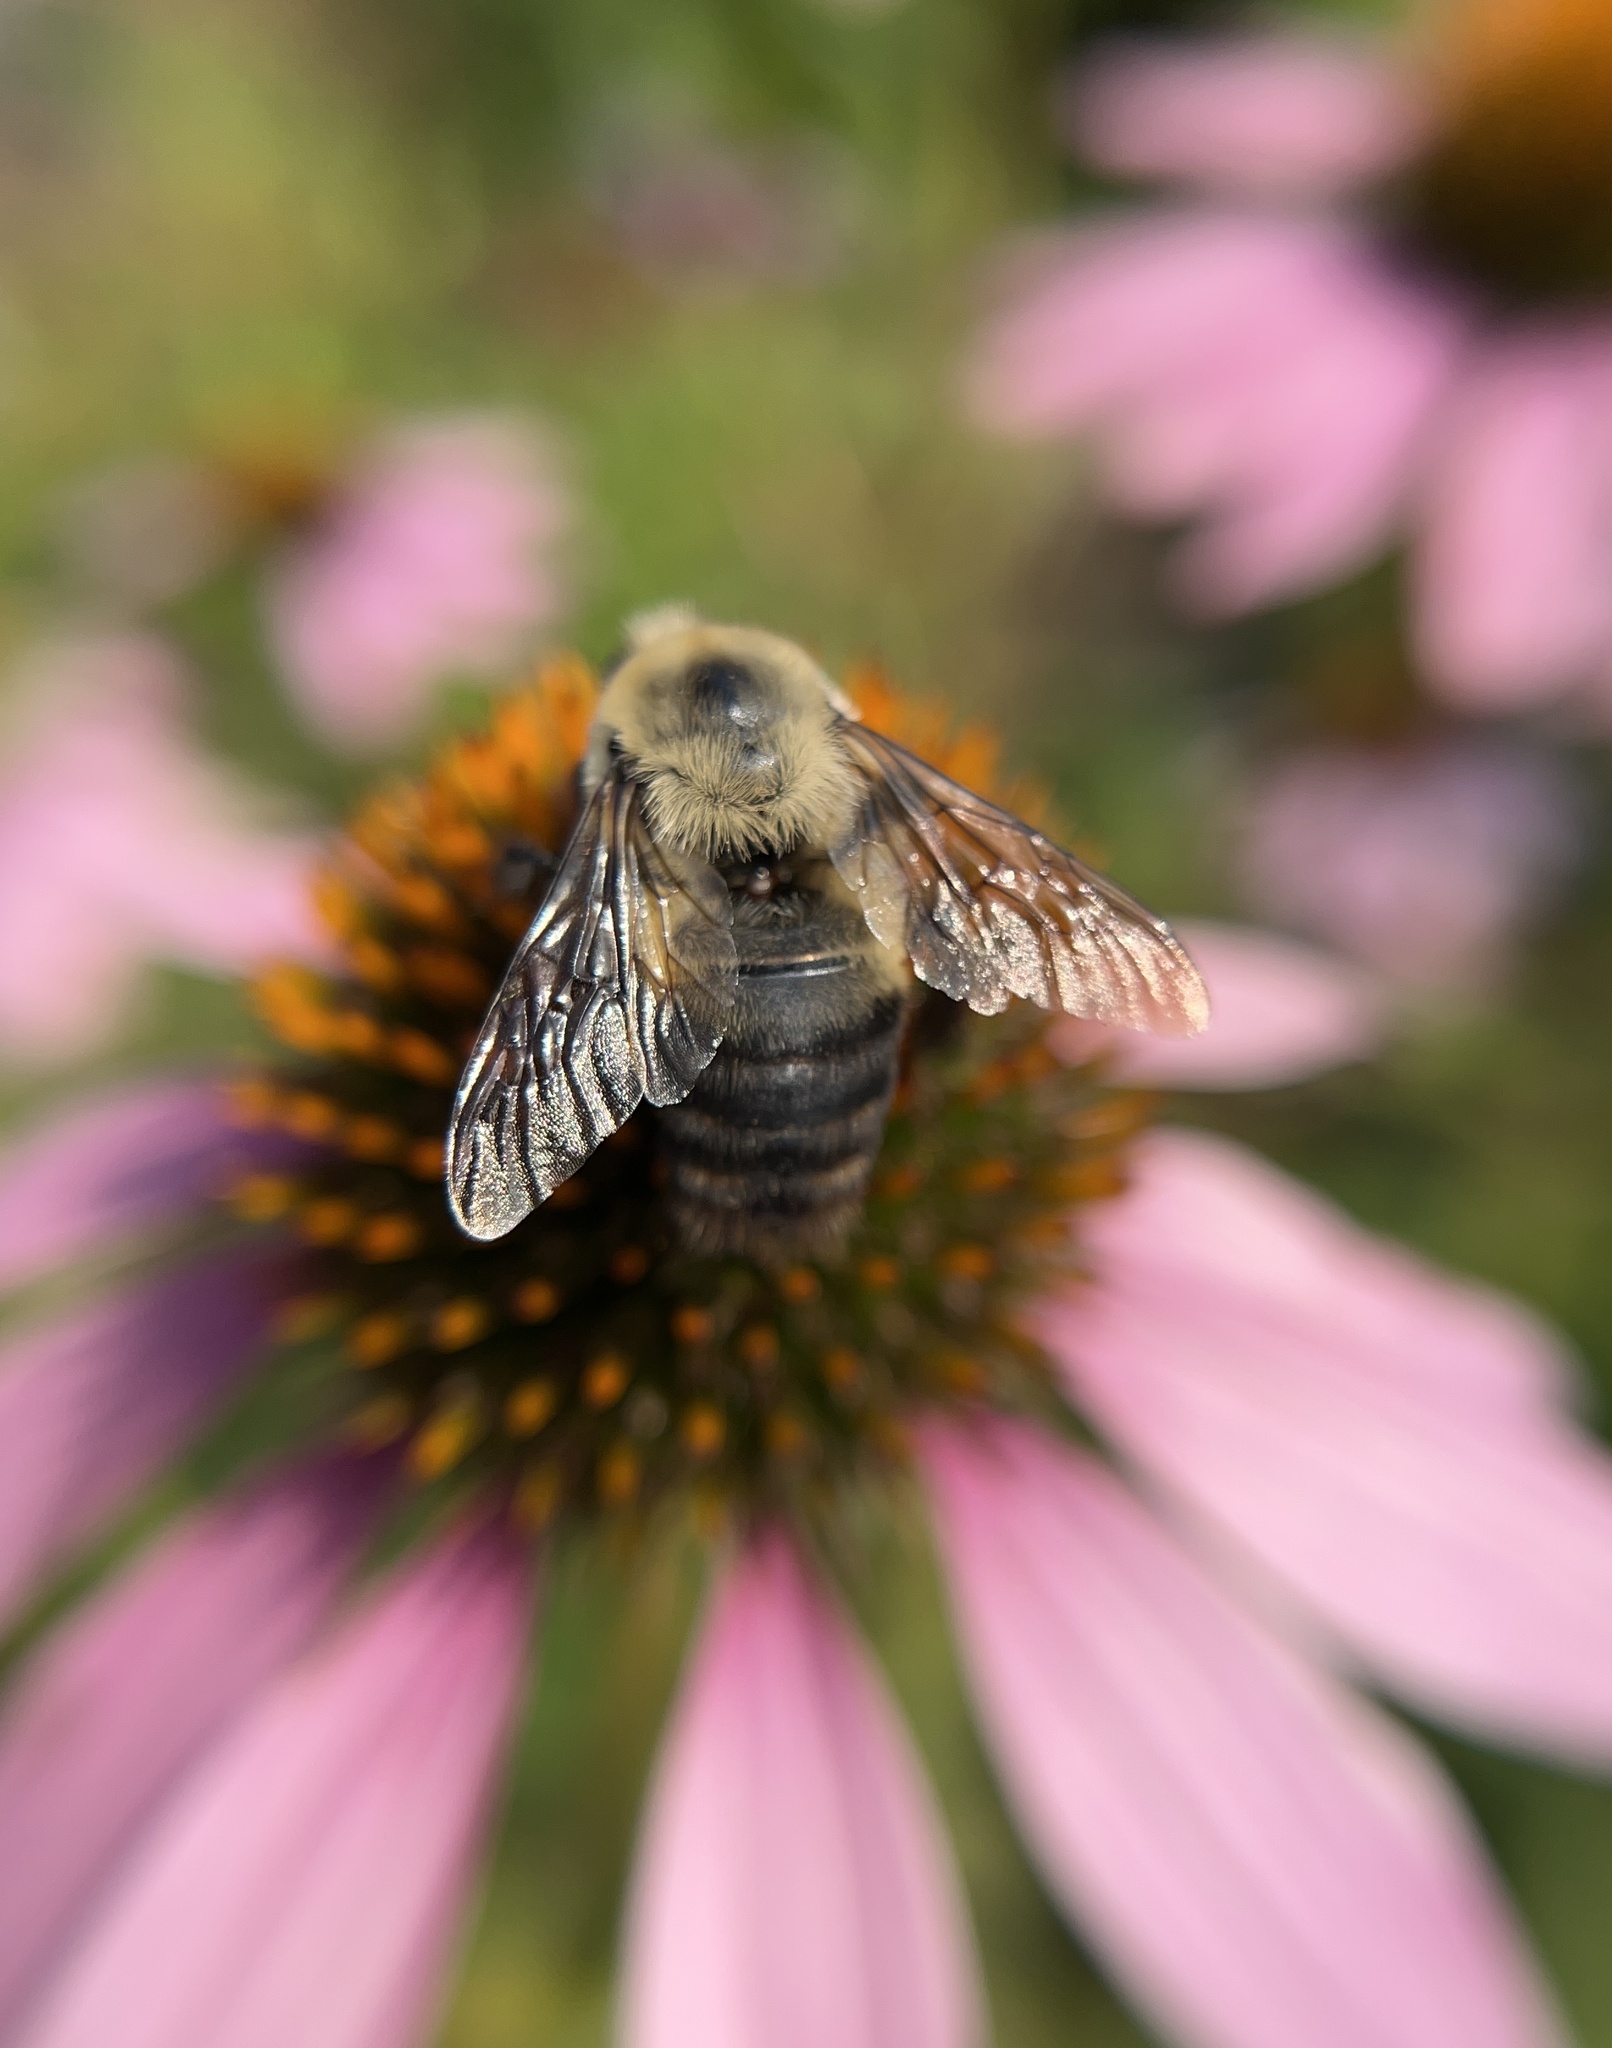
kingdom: Animalia
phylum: Arthropoda
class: Insecta
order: Hymenoptera
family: Apidae
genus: Bombus
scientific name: Bombus griseocollis
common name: Brown-belted bumble bee
